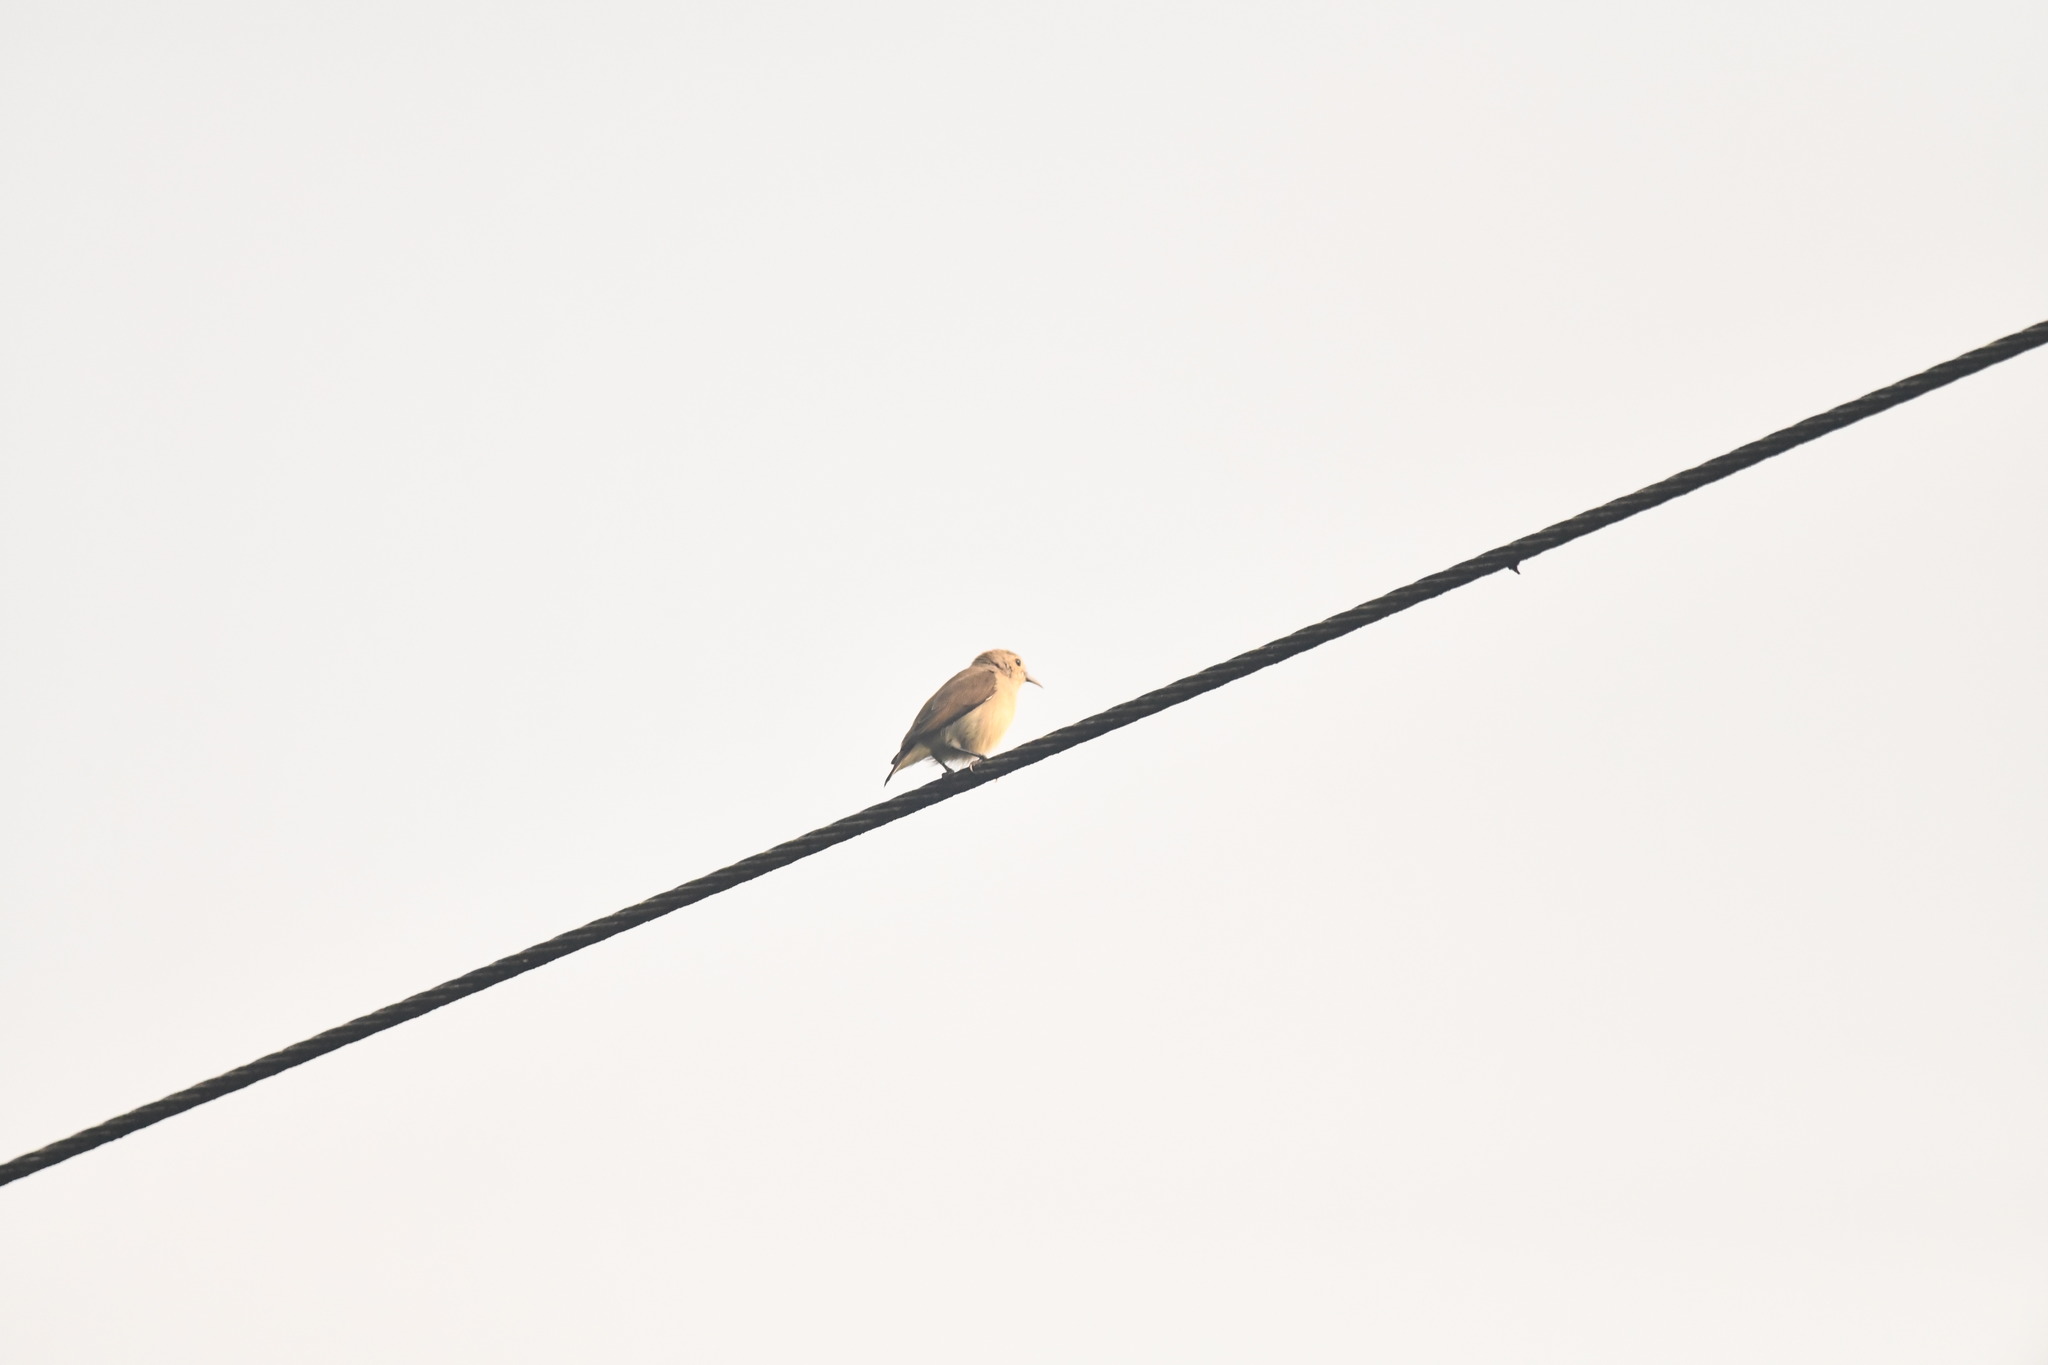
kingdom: Animalia
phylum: Chordata
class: Aves
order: Passeriformes
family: Dicaeidae
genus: Dicaeum
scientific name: Dicaeum concolor
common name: Nilgiri flowerpecker
